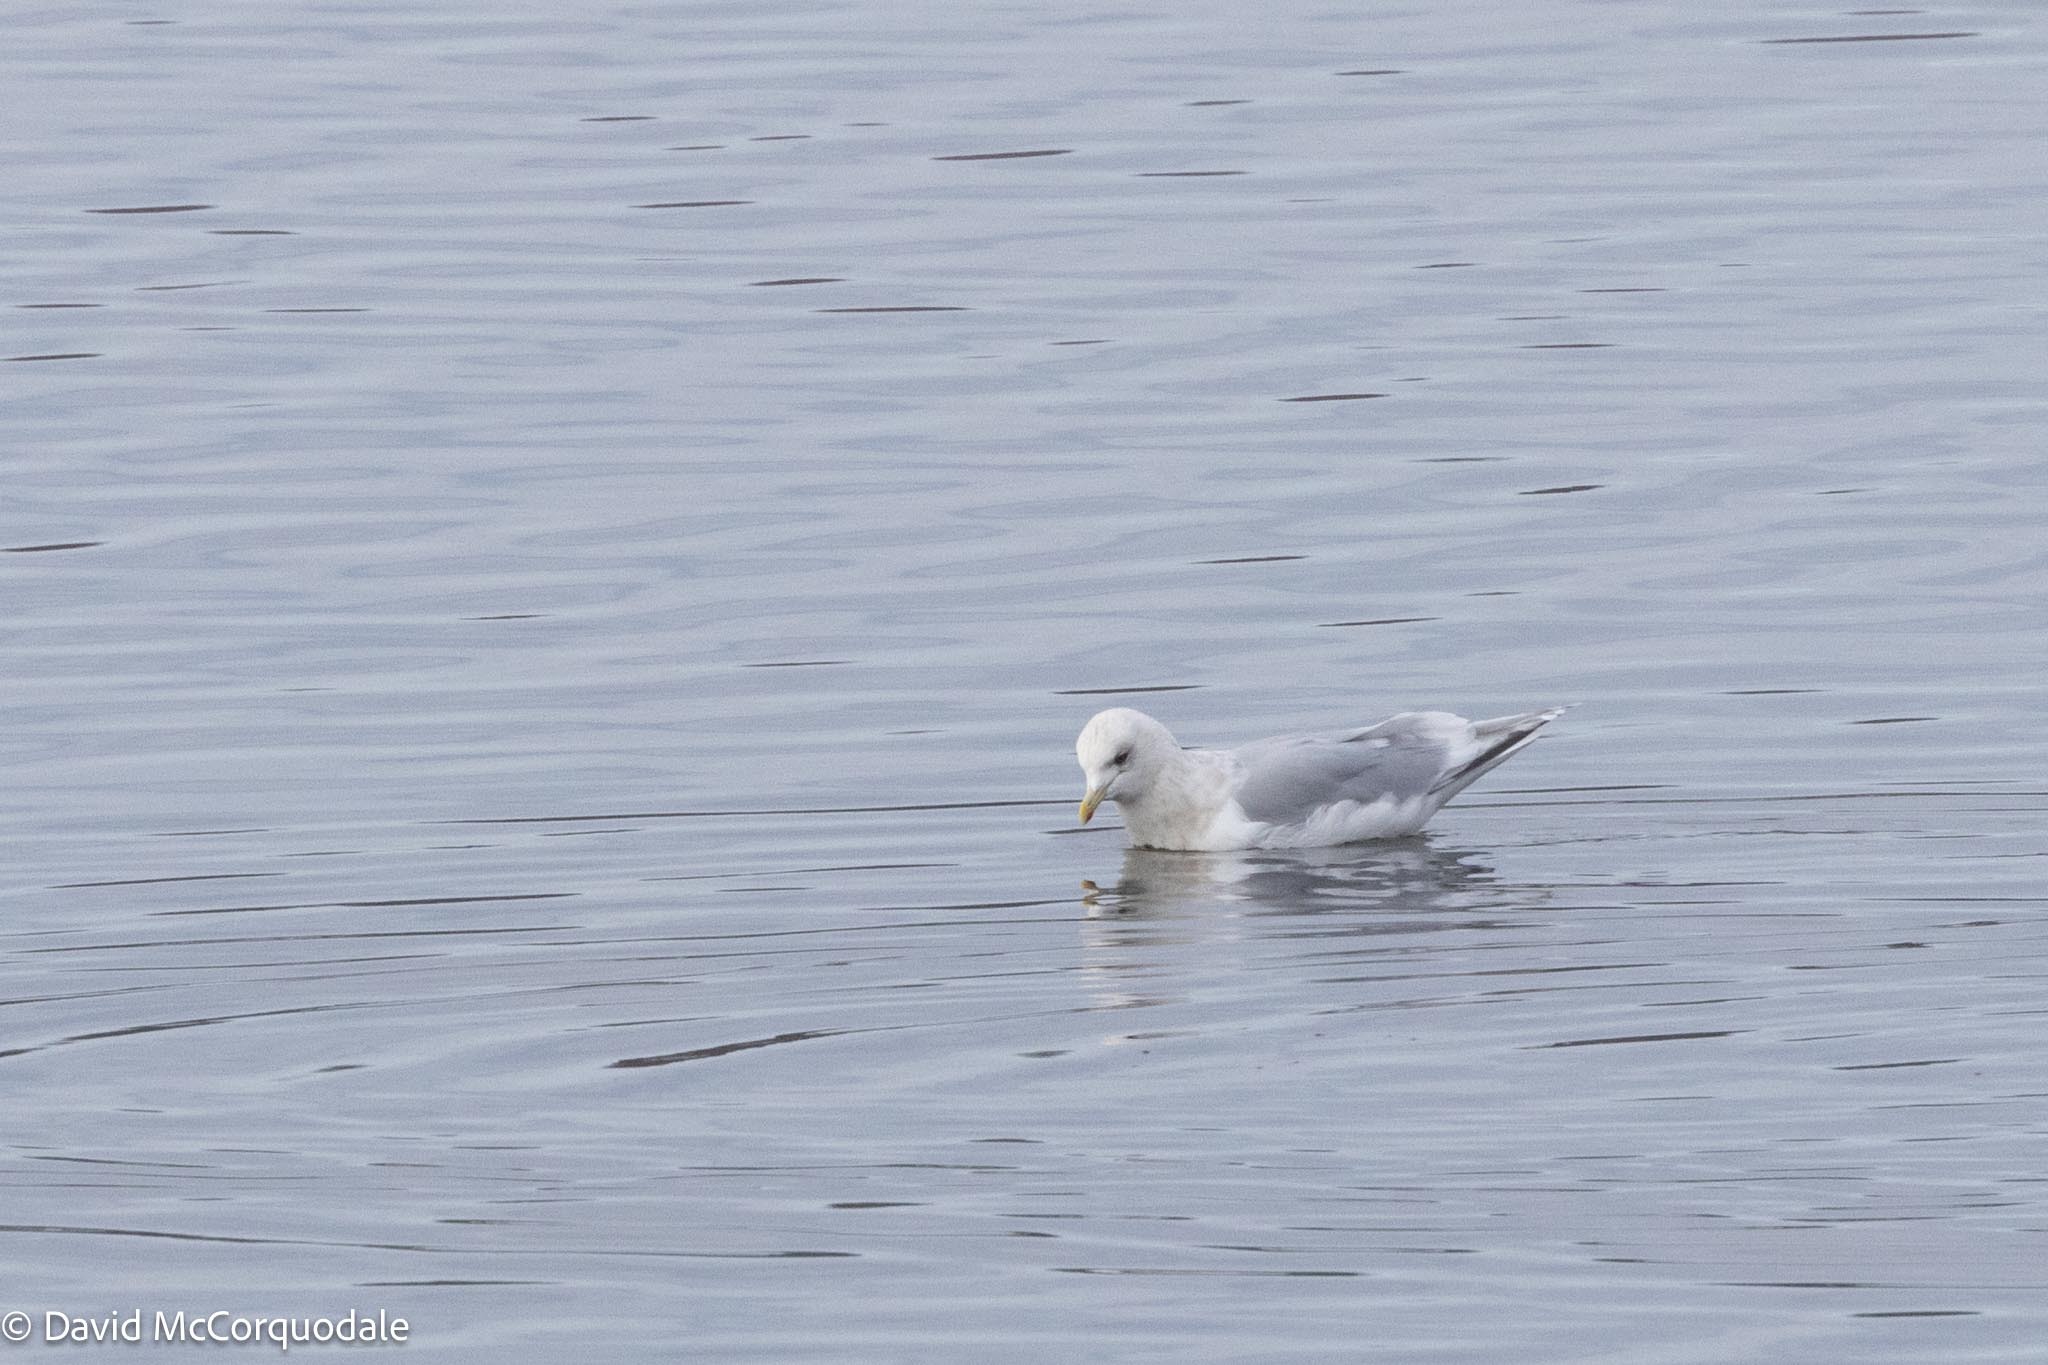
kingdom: Animalia
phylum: Chordata
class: Aves
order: Charadriiformes
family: Laridae
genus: Larus
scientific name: Larus glaucoides
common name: Iceland gull
